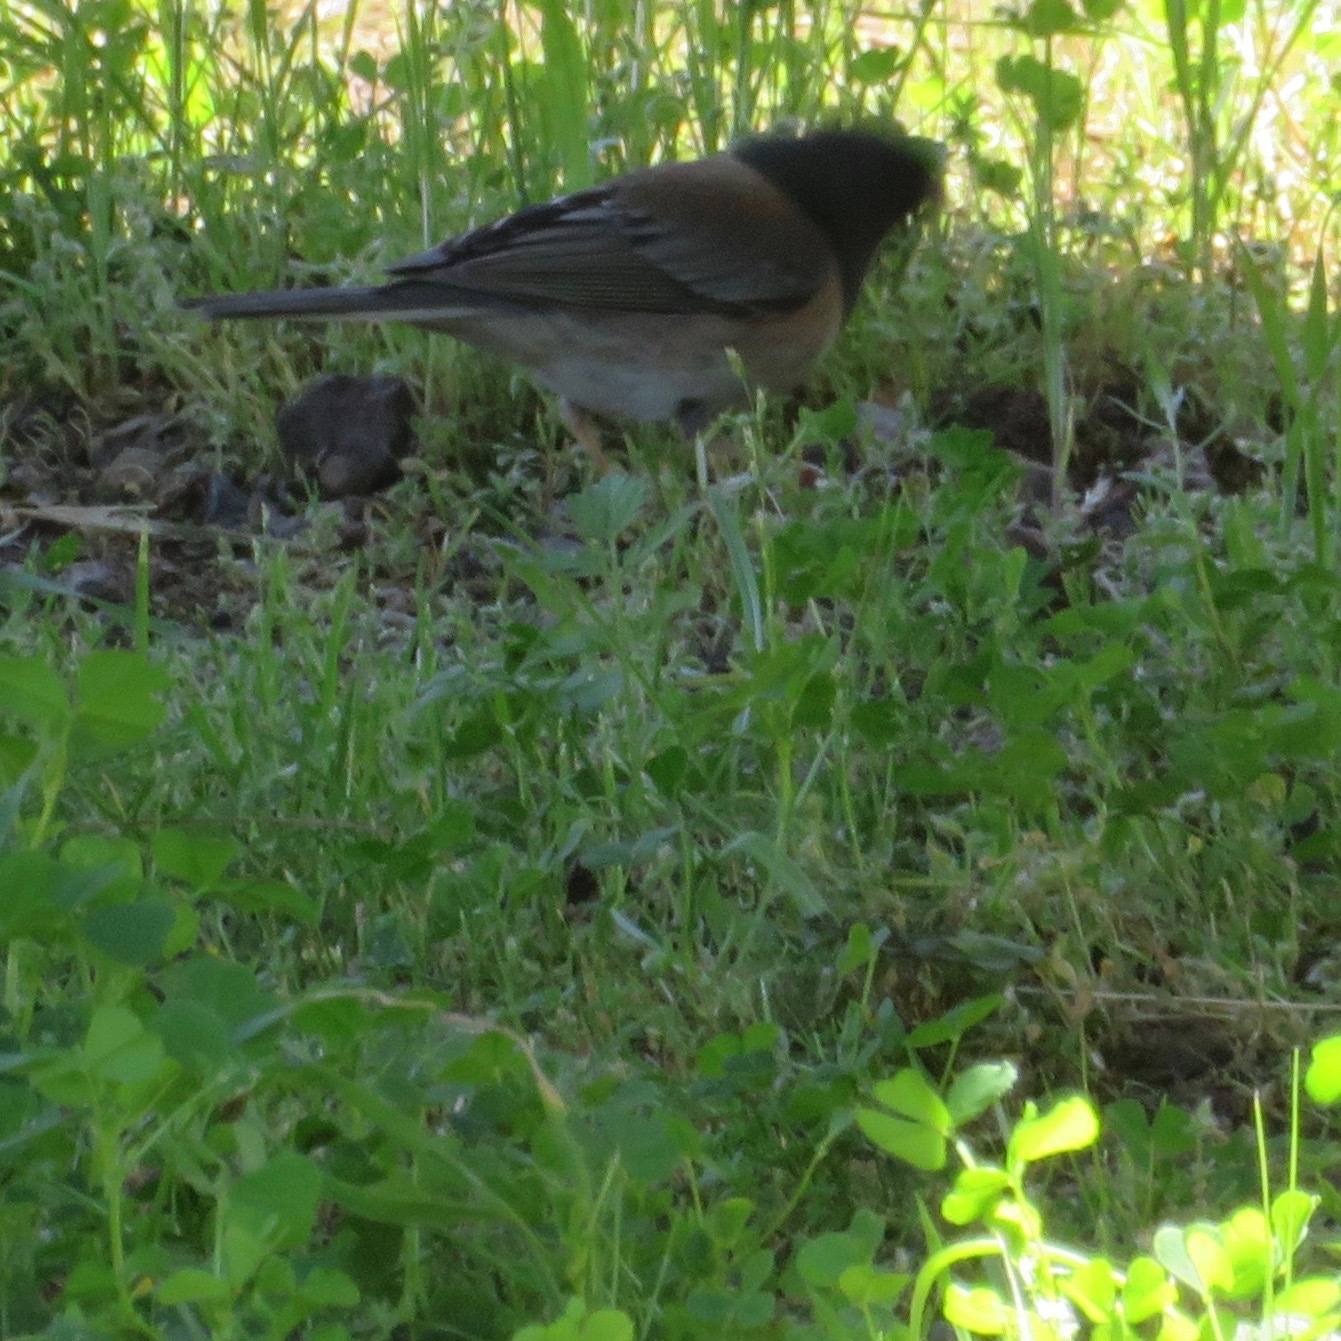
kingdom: Animalia
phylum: Chordata
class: Aves
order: Passeriformes
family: Passerellidae
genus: Junco
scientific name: Junco hyemalis
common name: Dark-eyed junco
